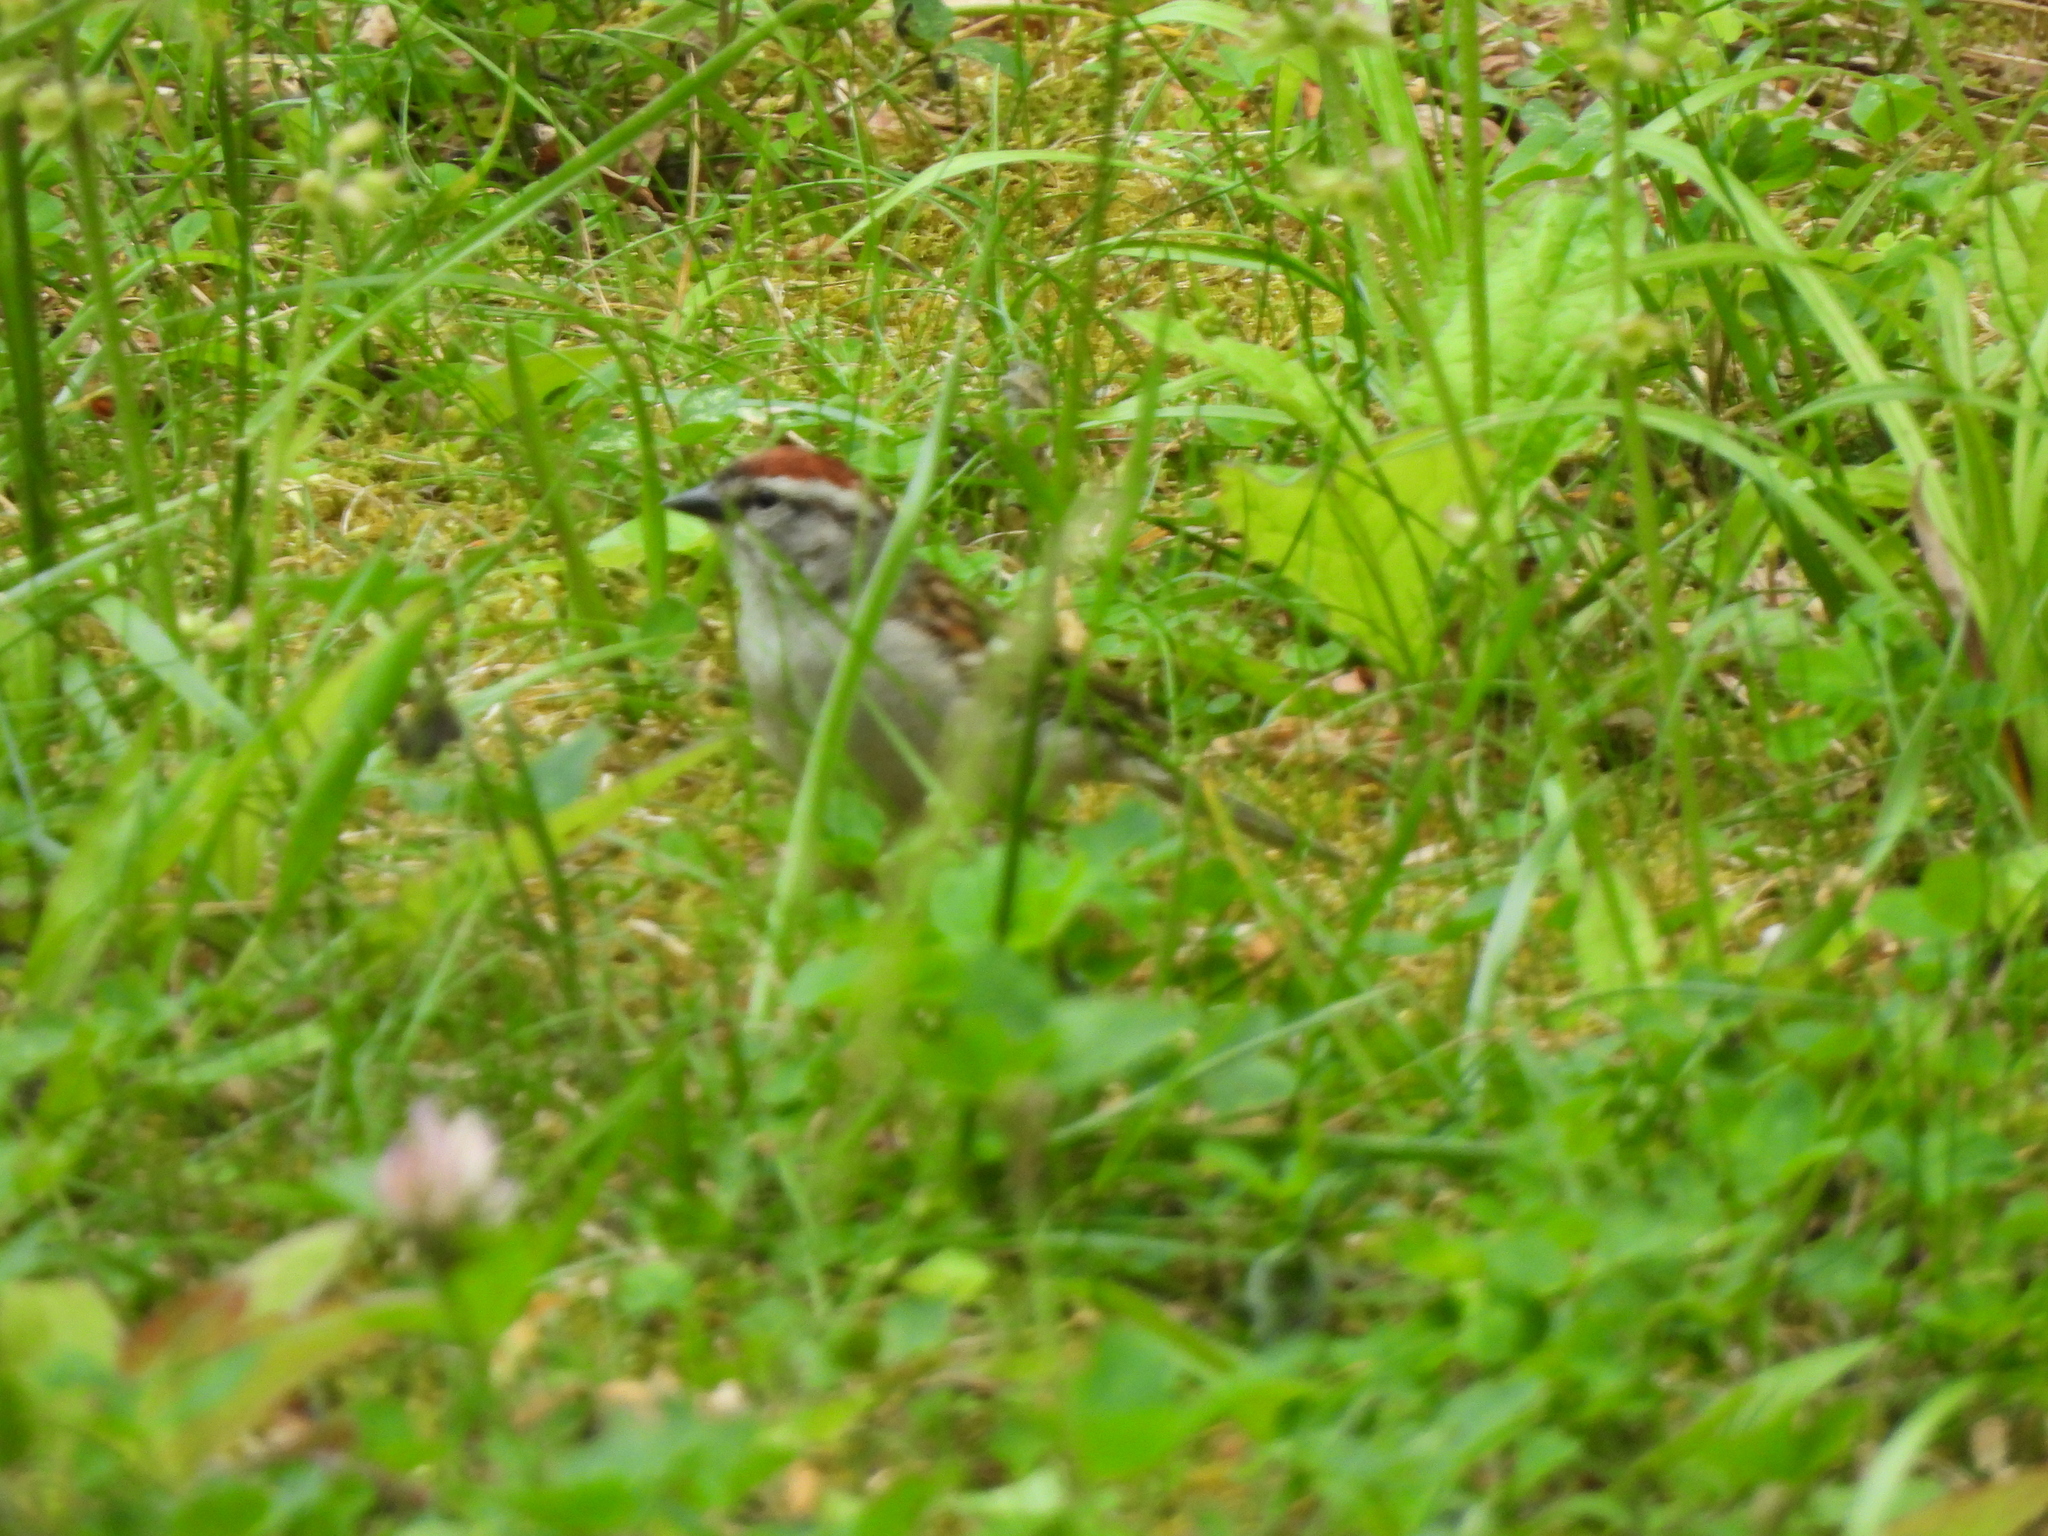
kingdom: Animalia
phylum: Chordata
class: Aves
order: Passeriformes
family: Passerellidae
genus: Spizella
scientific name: Spizella passerina
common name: Chipping sparrow
